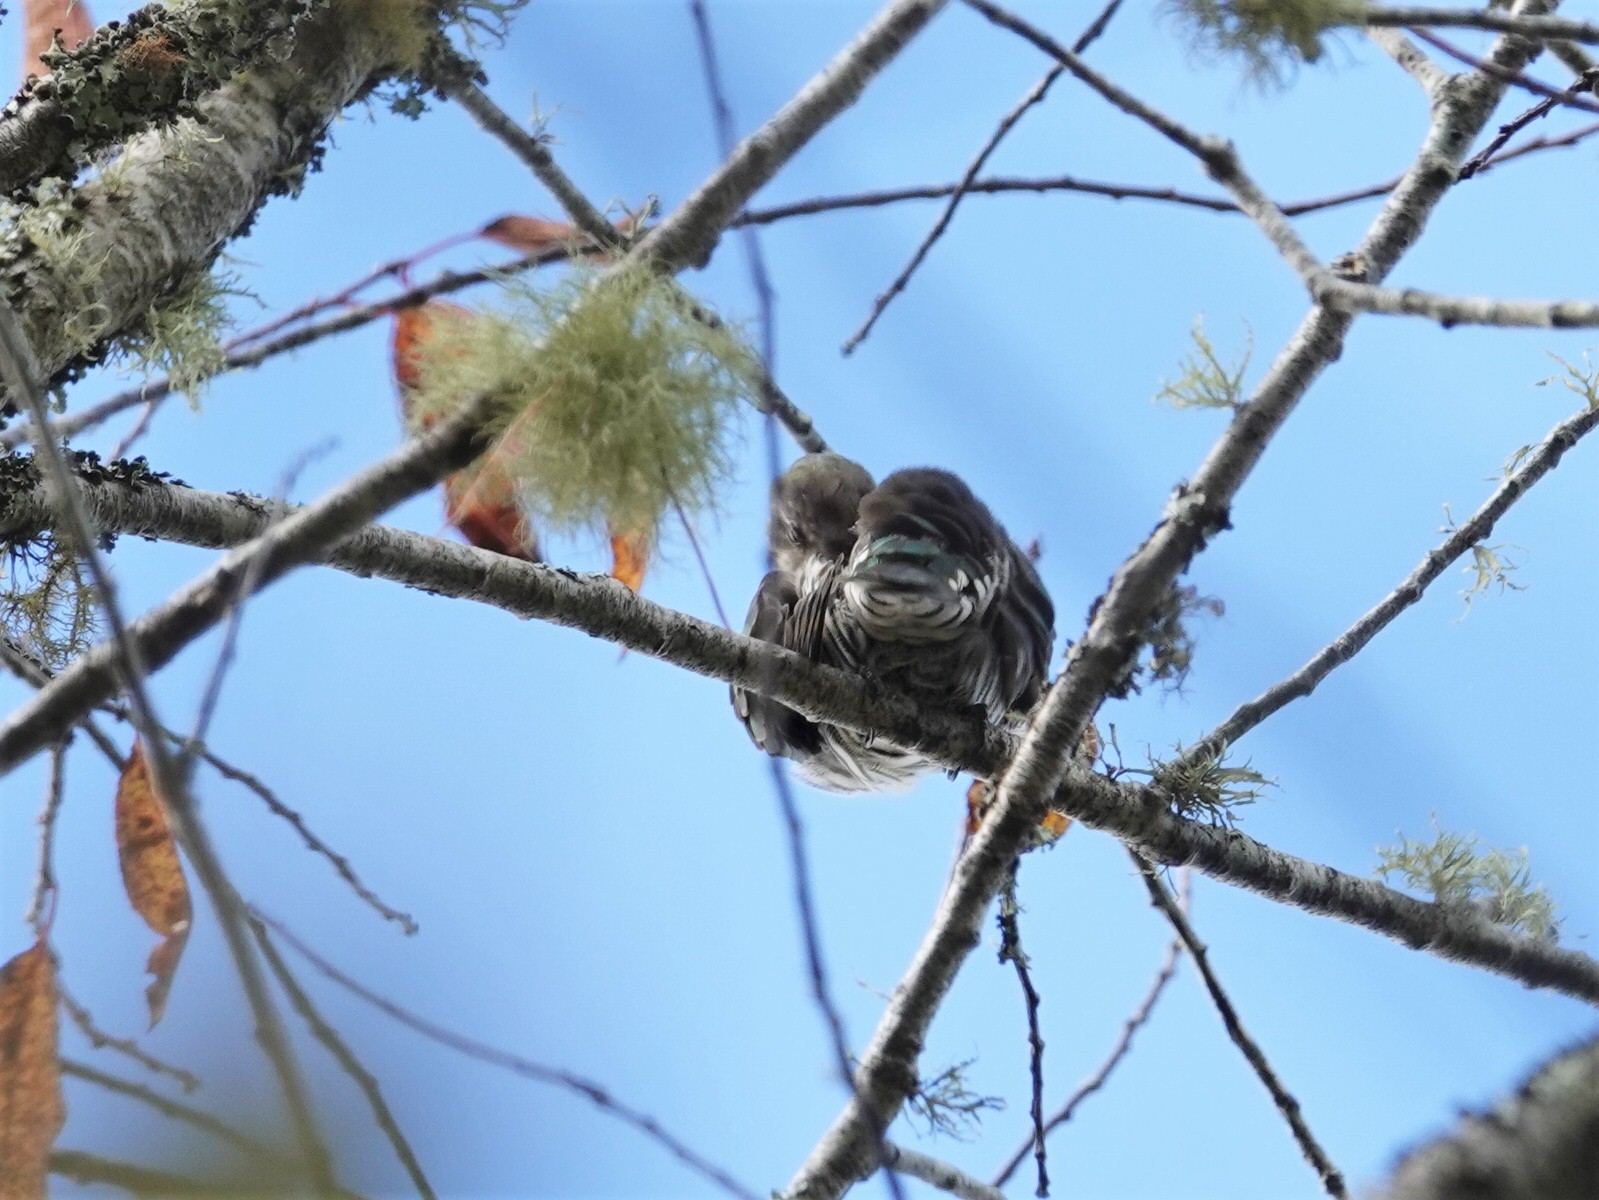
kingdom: Animalia
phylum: Chordata
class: Aves
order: Cuculiformes
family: Cuculidae
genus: Chrysococcyx
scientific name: Chrysococcyx lucidus
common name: Shining bronze cuckoo
